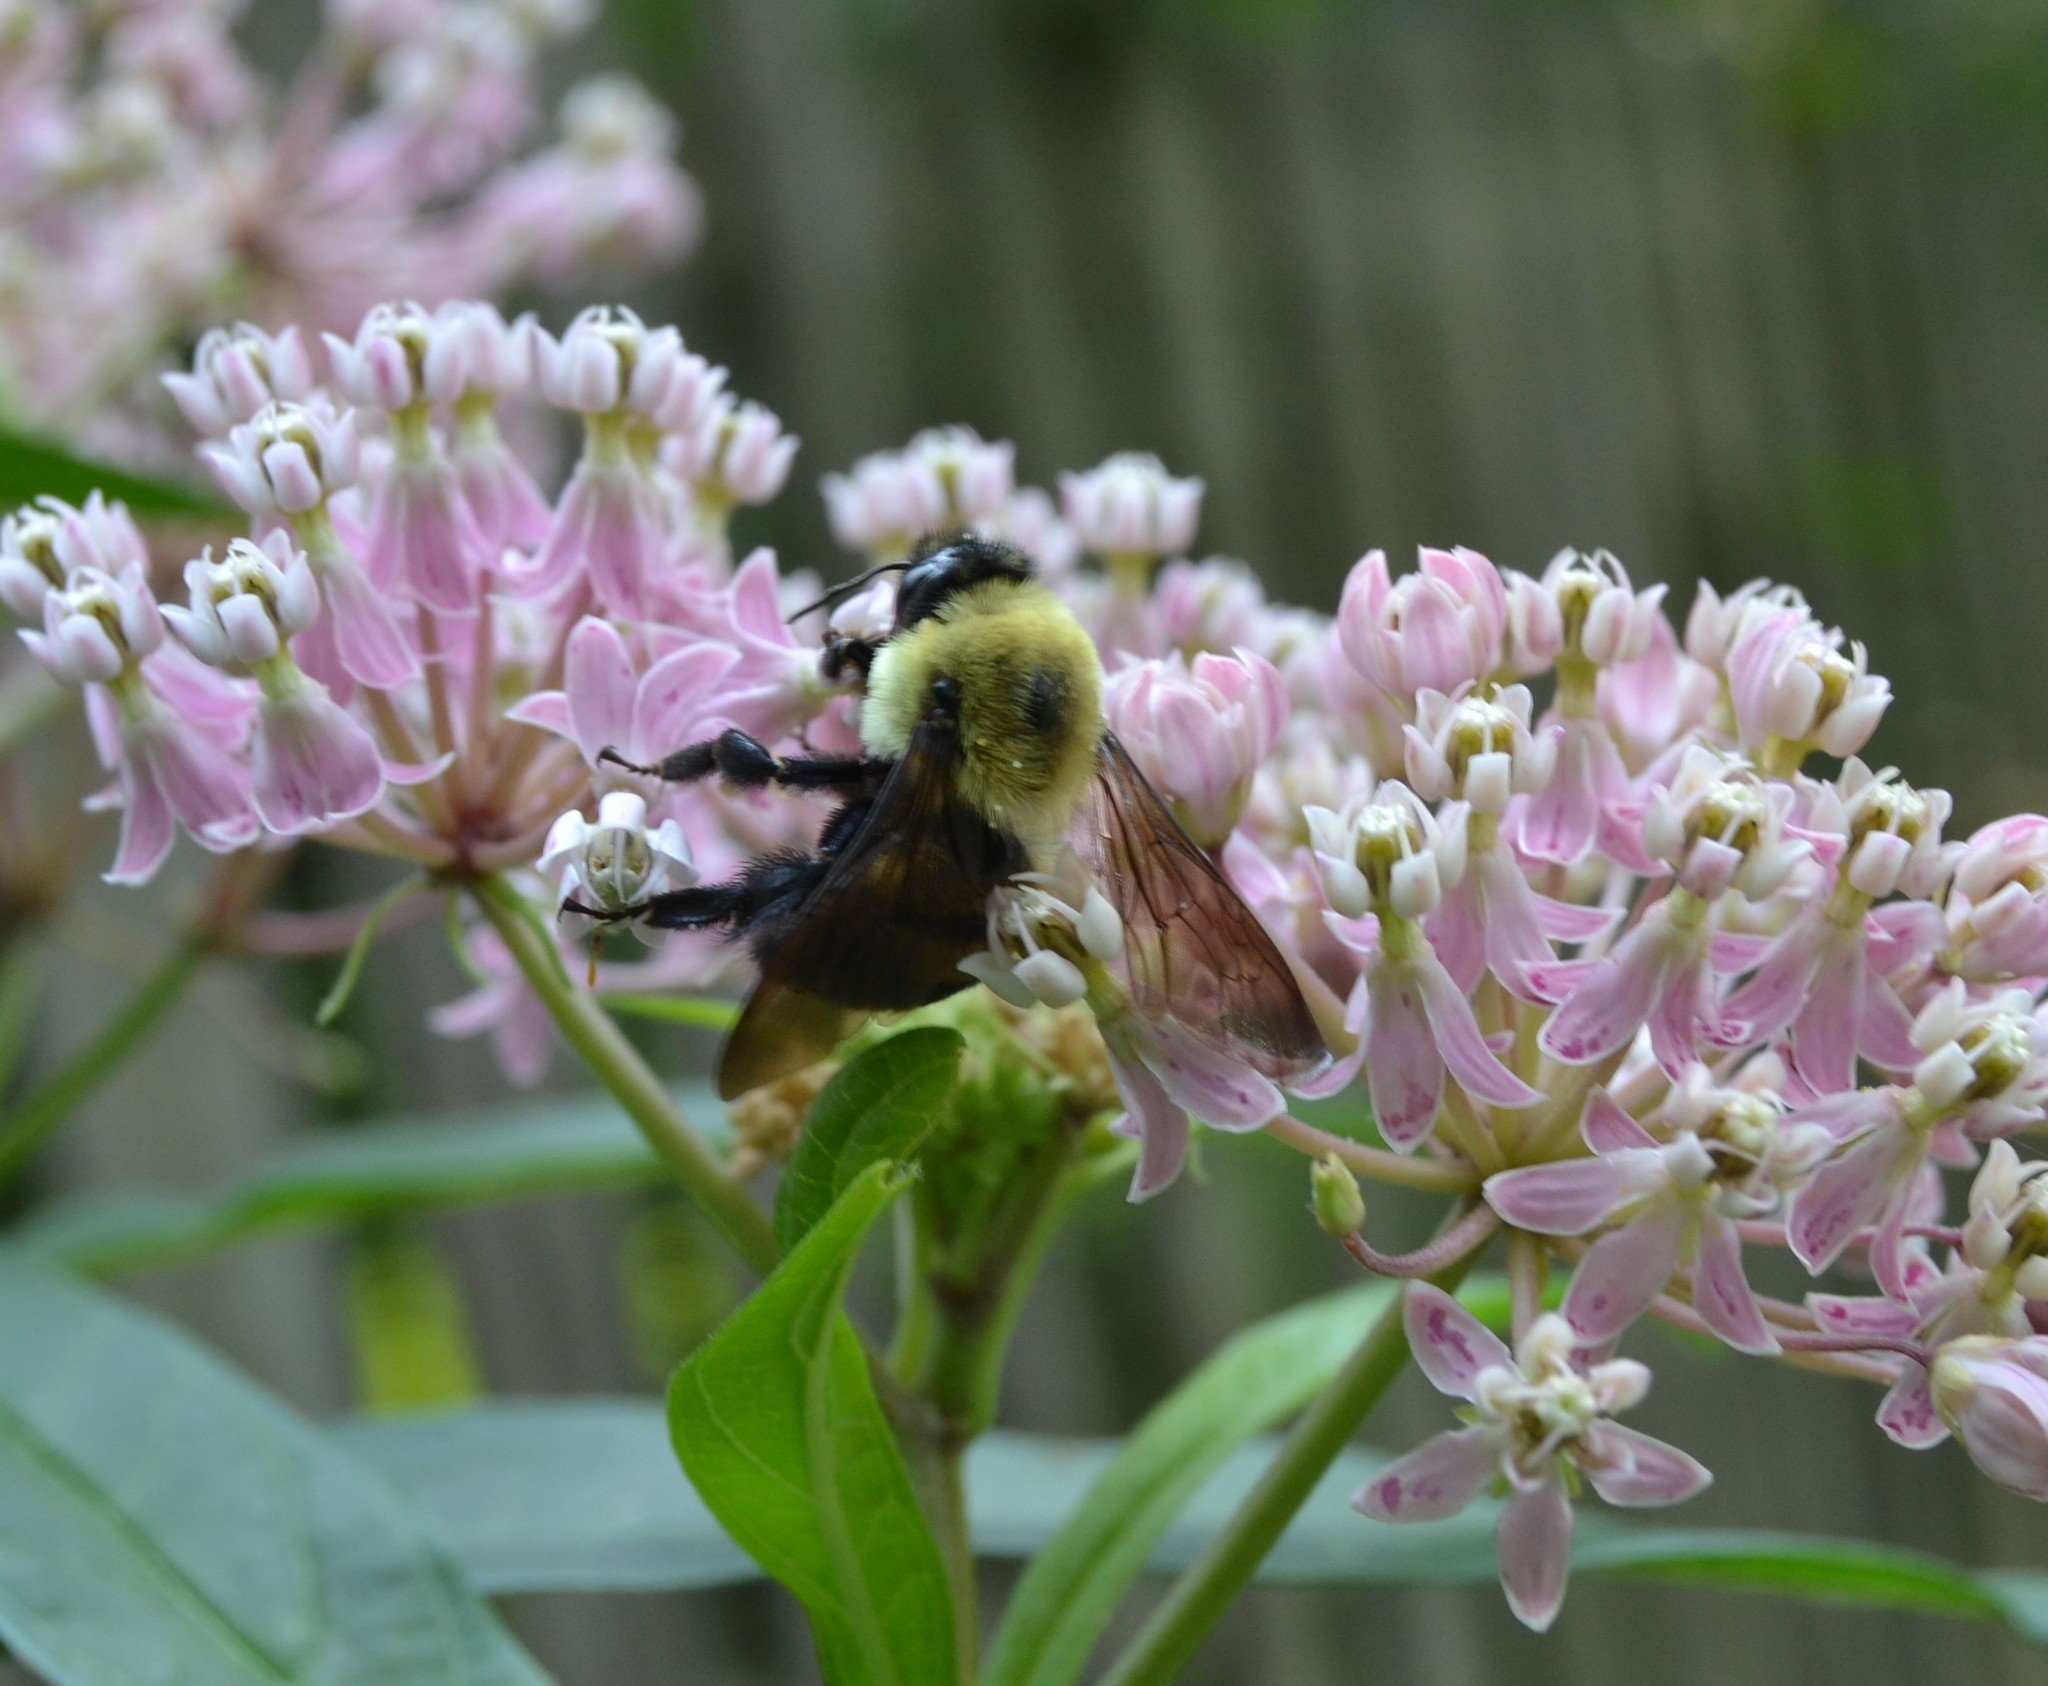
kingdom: Animalia
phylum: Arthropoda
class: Insecta
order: Hymenoptera
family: Apidae
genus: Bombus
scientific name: Bombus griseocollis
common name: Brown-belted bumble bee
